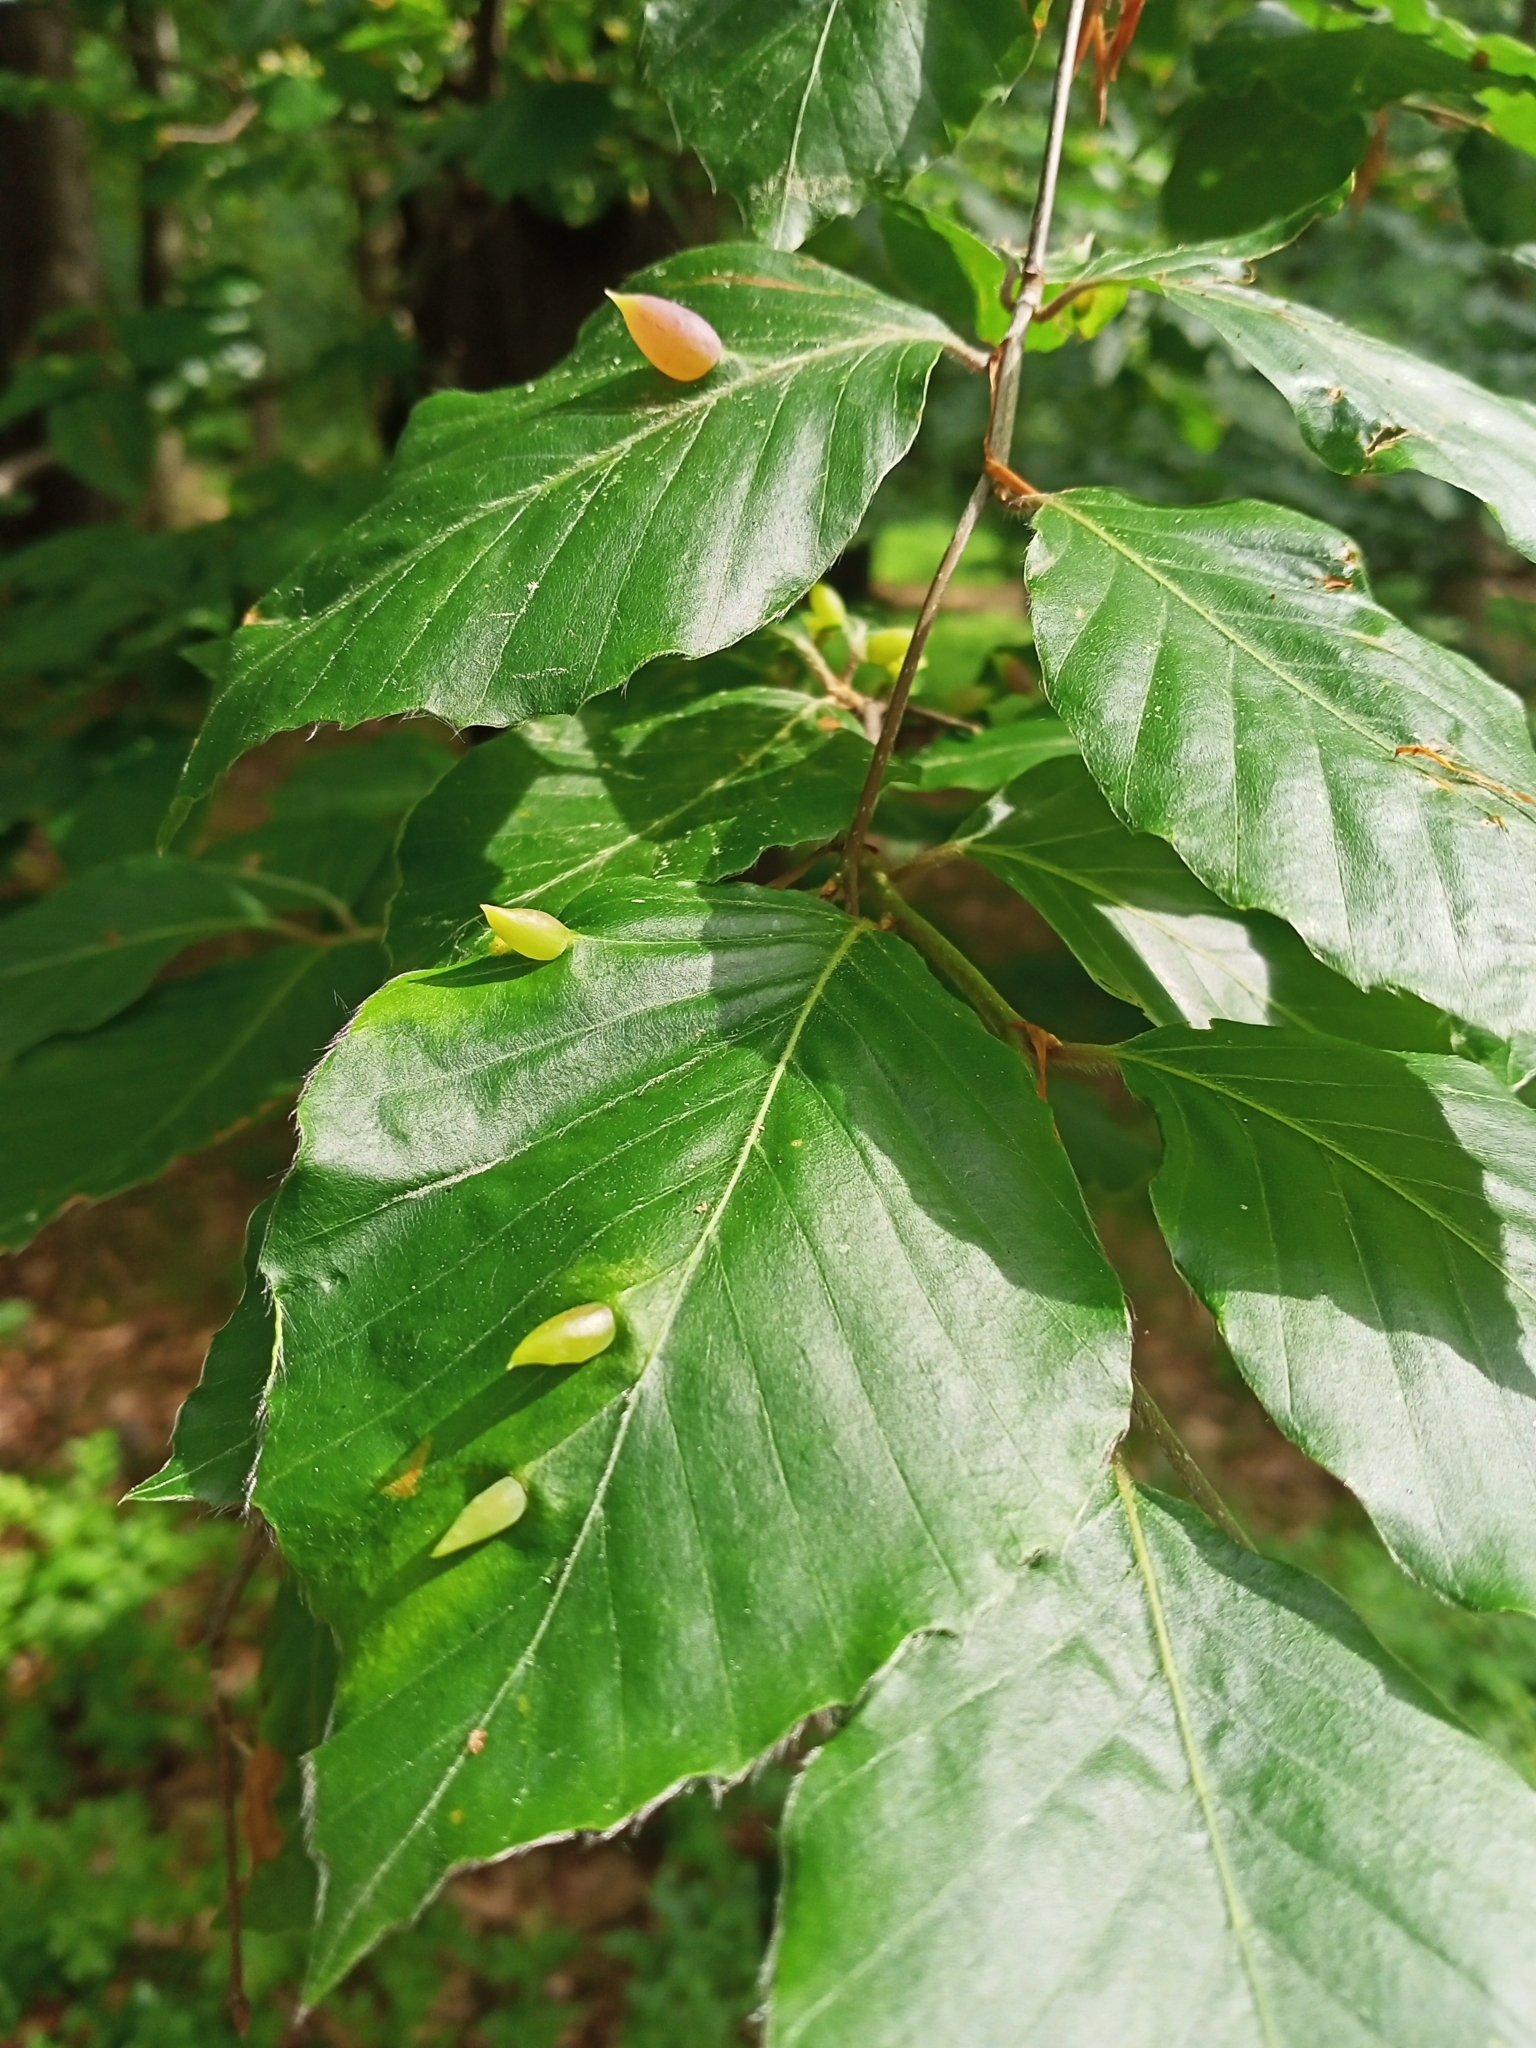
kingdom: Animalia
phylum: Arthropoda
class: Insecta
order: Diptera
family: Cecidomyiidae
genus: Mikiola
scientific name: Mikiola fagi
